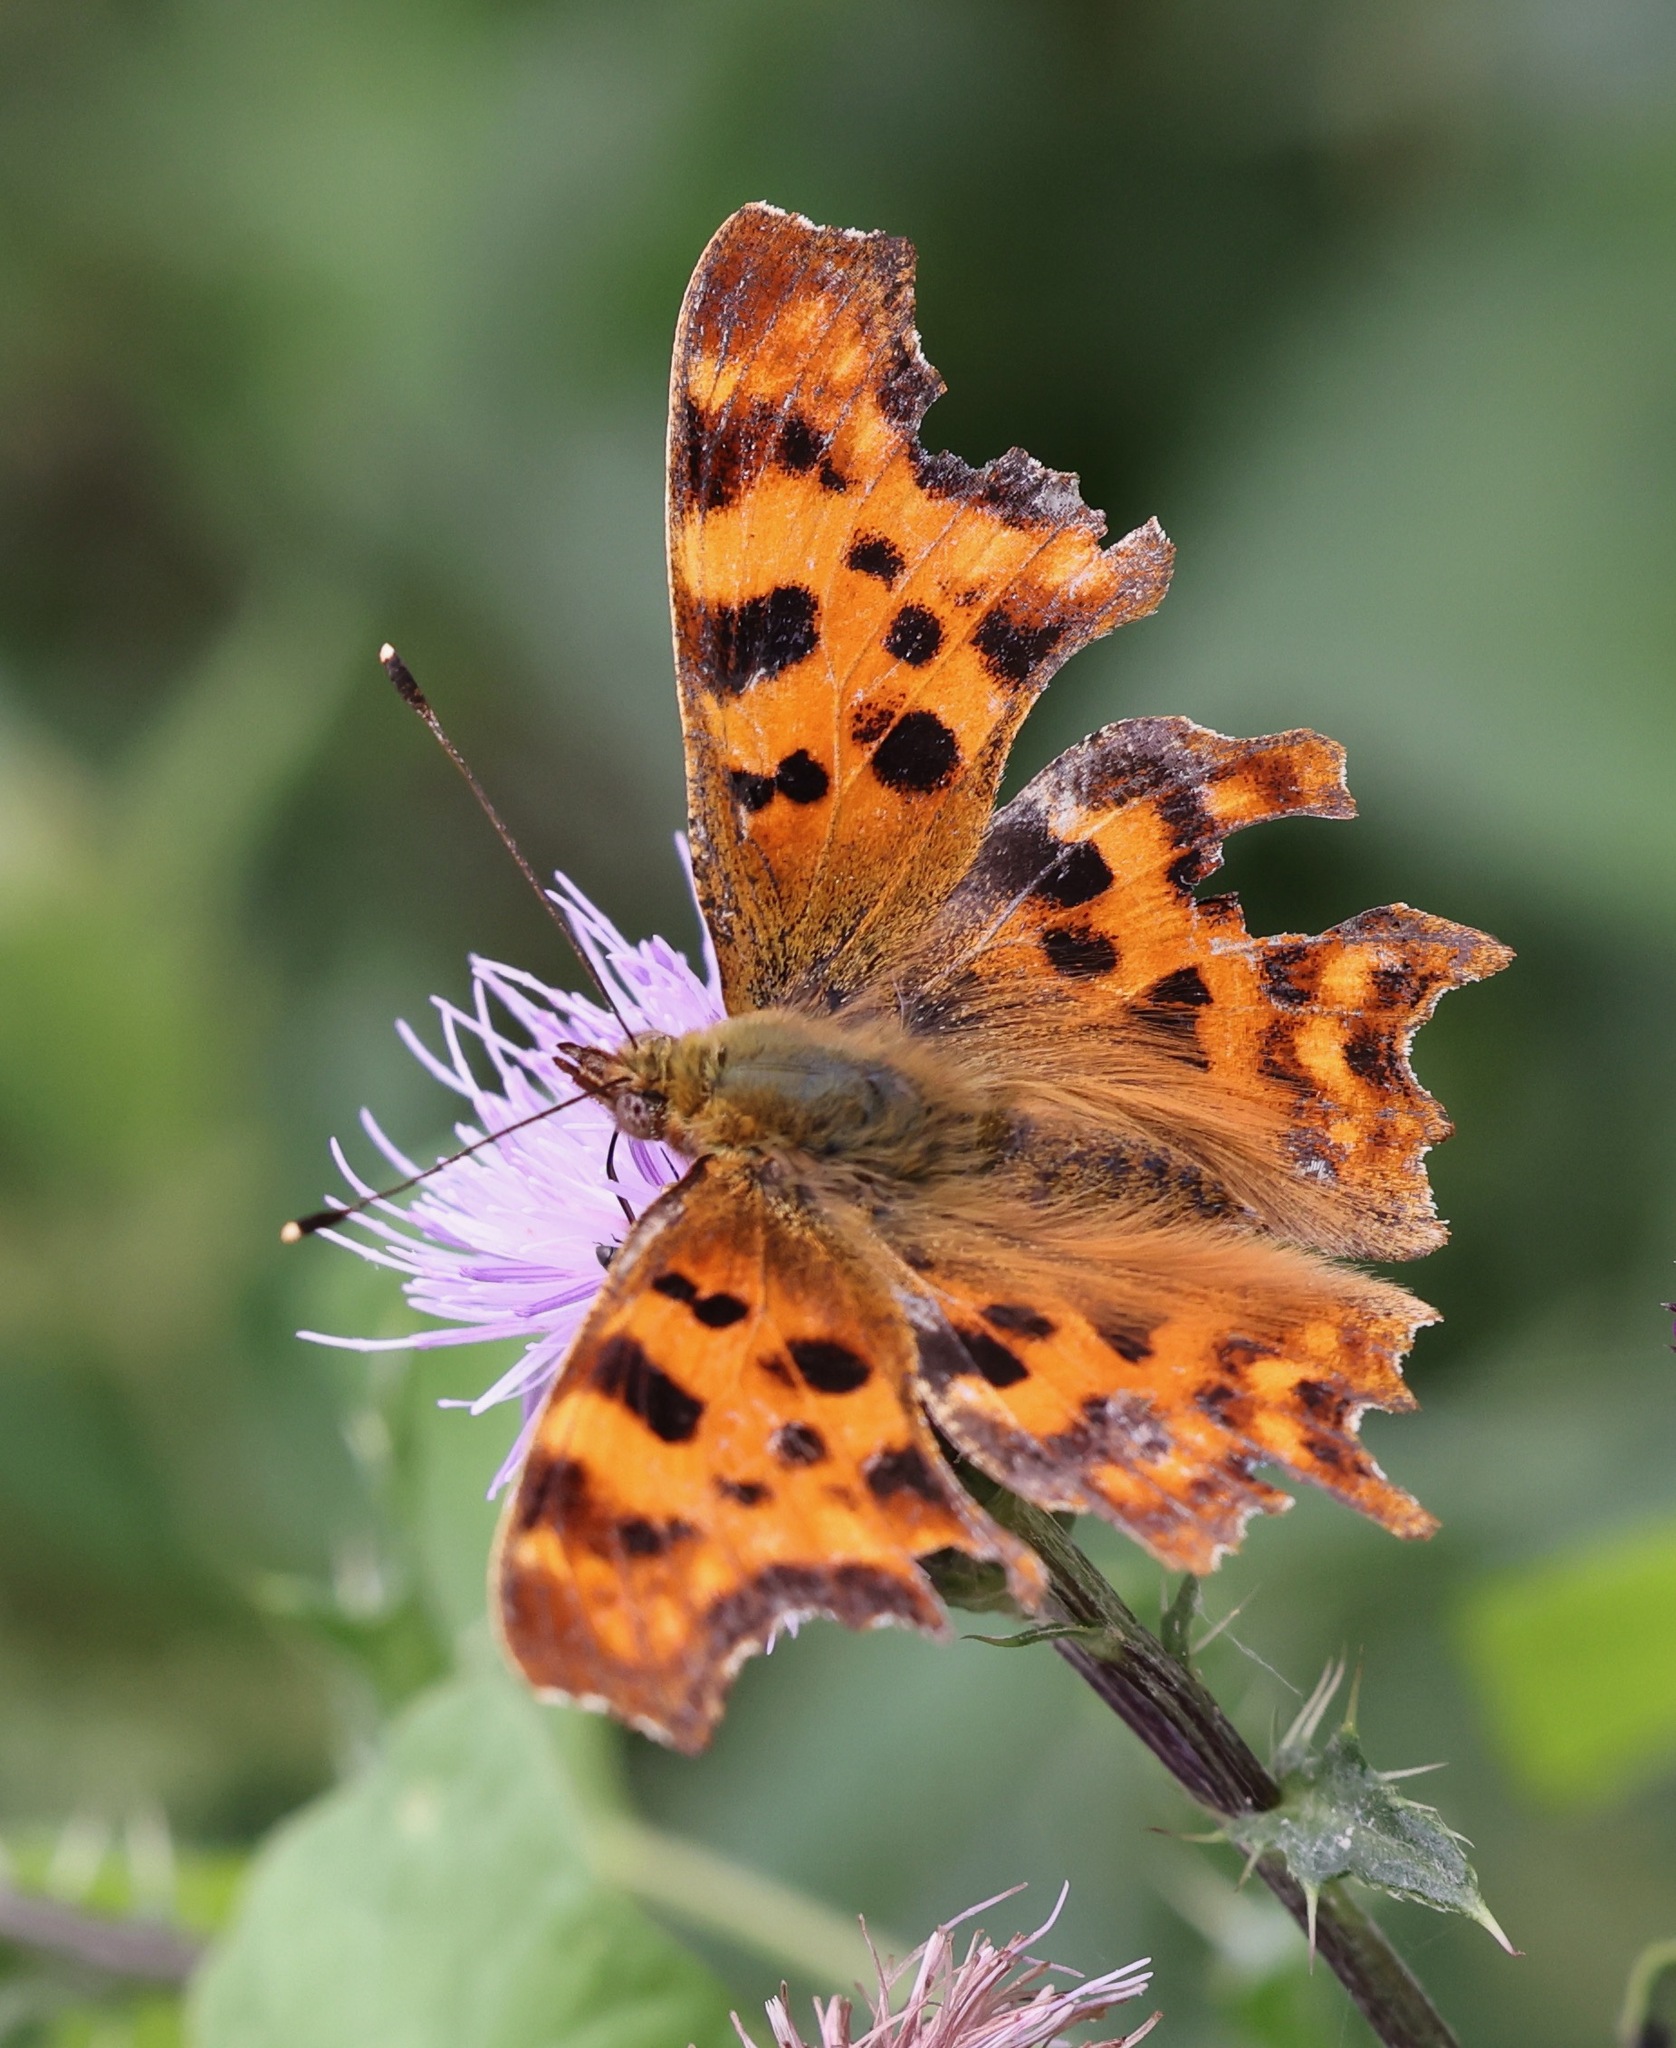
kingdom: Animalia
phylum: Arthropoda
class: Insecta
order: Lepidoptera
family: Nymphalidae
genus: Polygonia
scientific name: Polygonia c-album
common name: Comma
